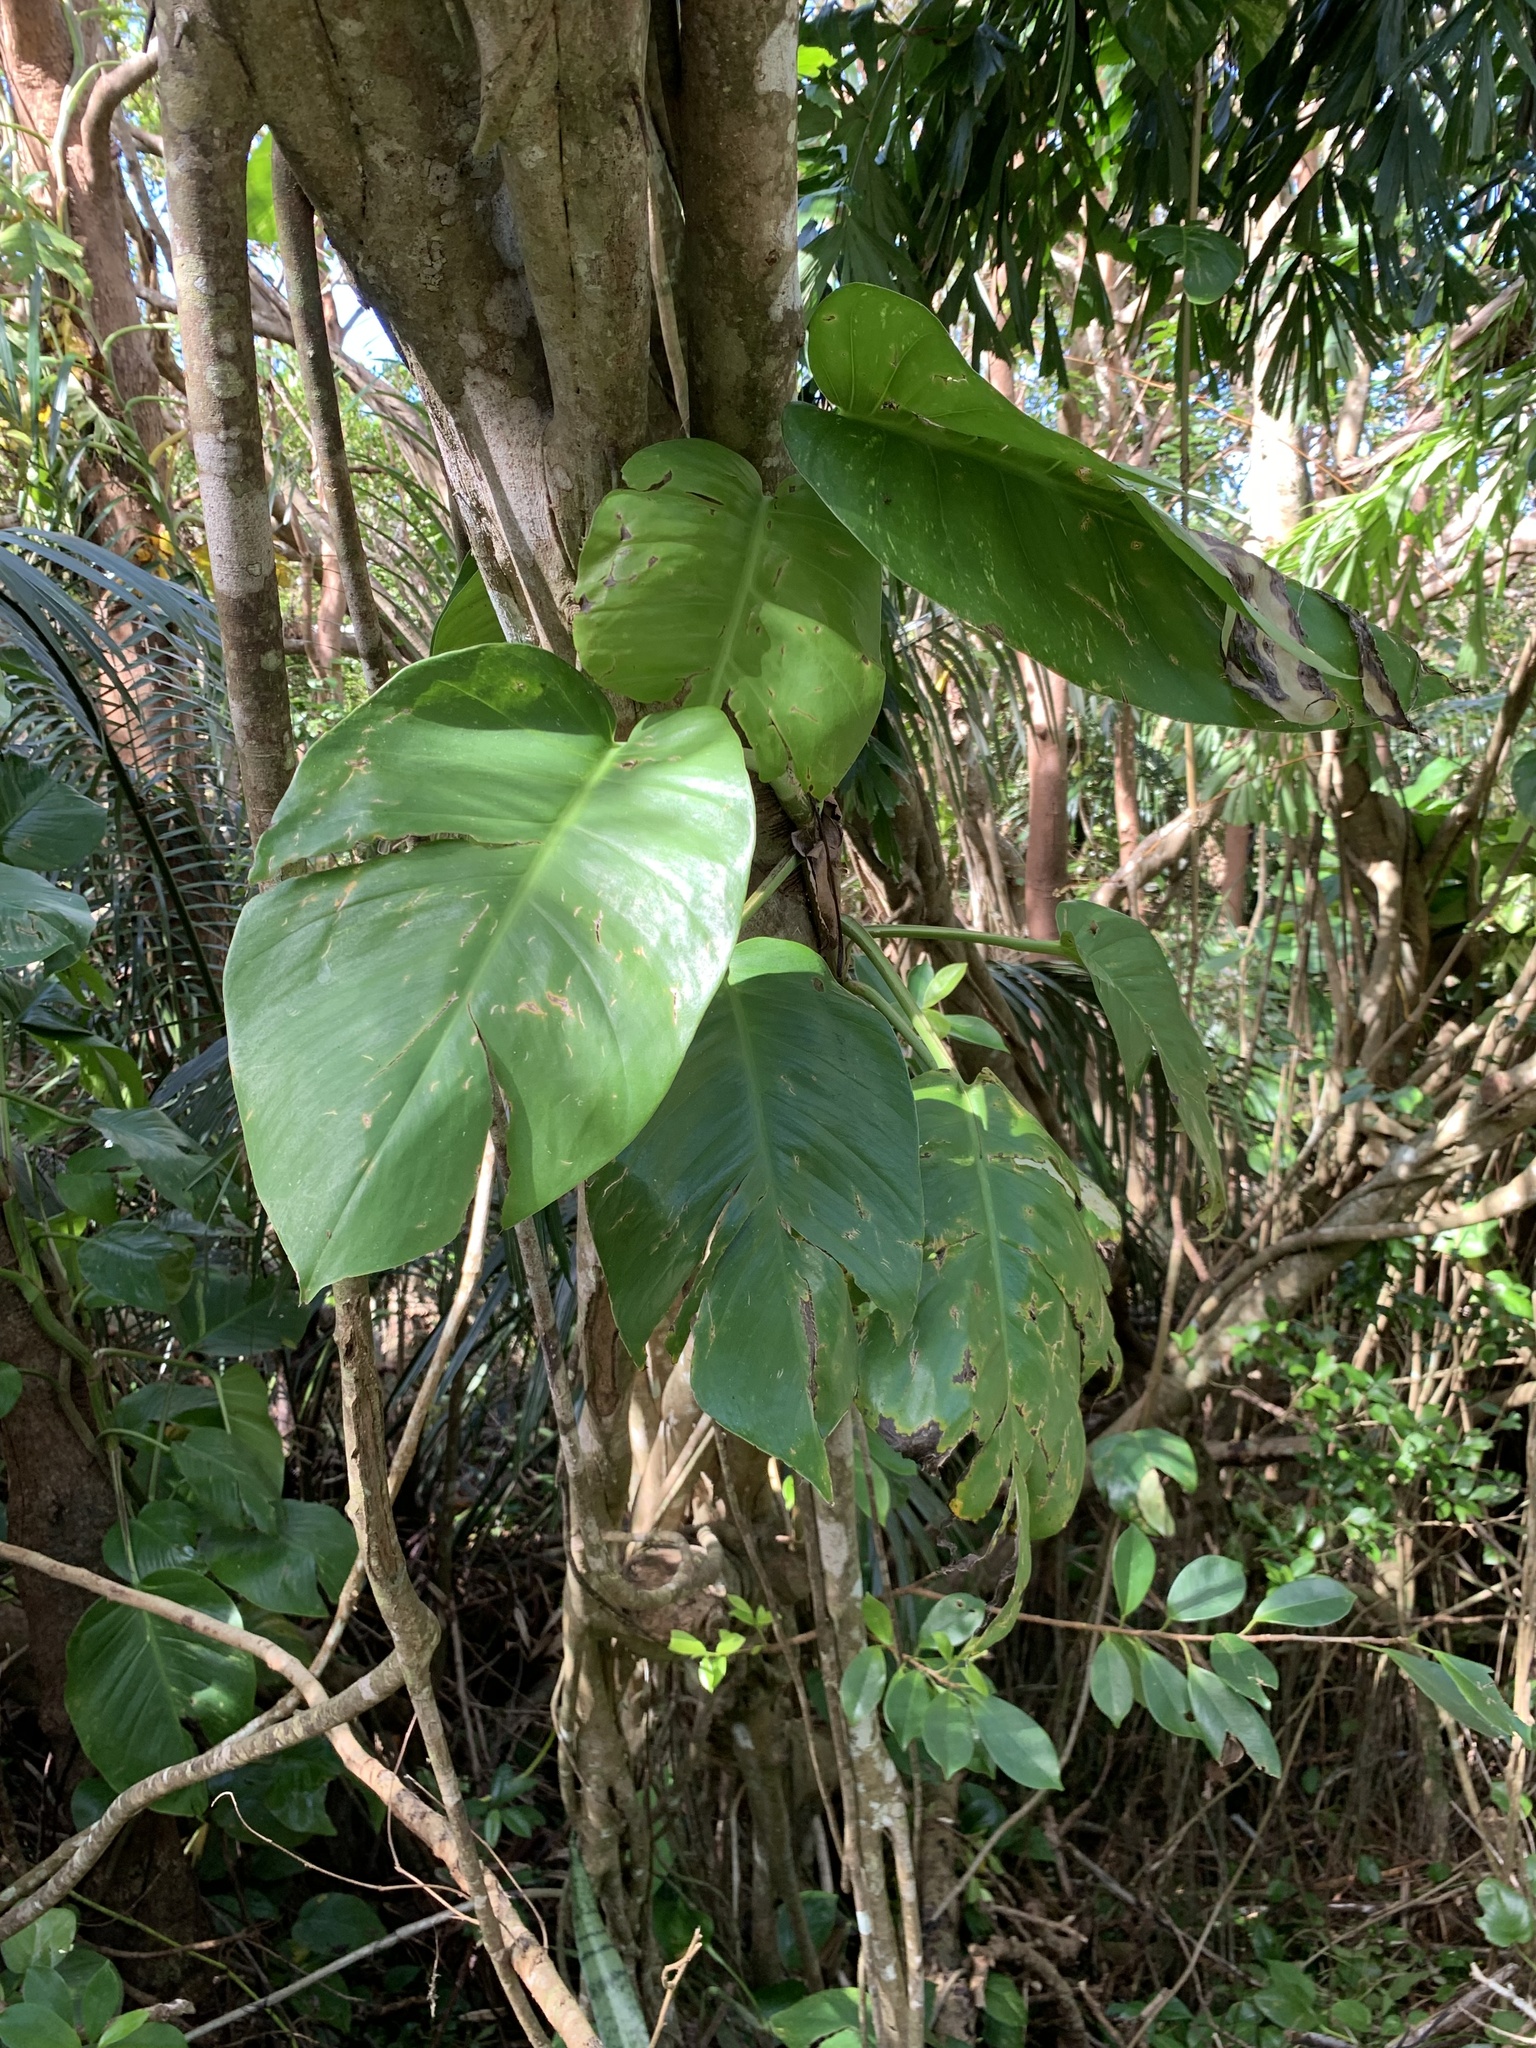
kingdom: Plantae
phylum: Tracheophyta
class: Liliopsida
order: Alismatales
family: Araceae
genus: Epipremnum
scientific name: Epipremnum aureum
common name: Golden hunter's-robe
